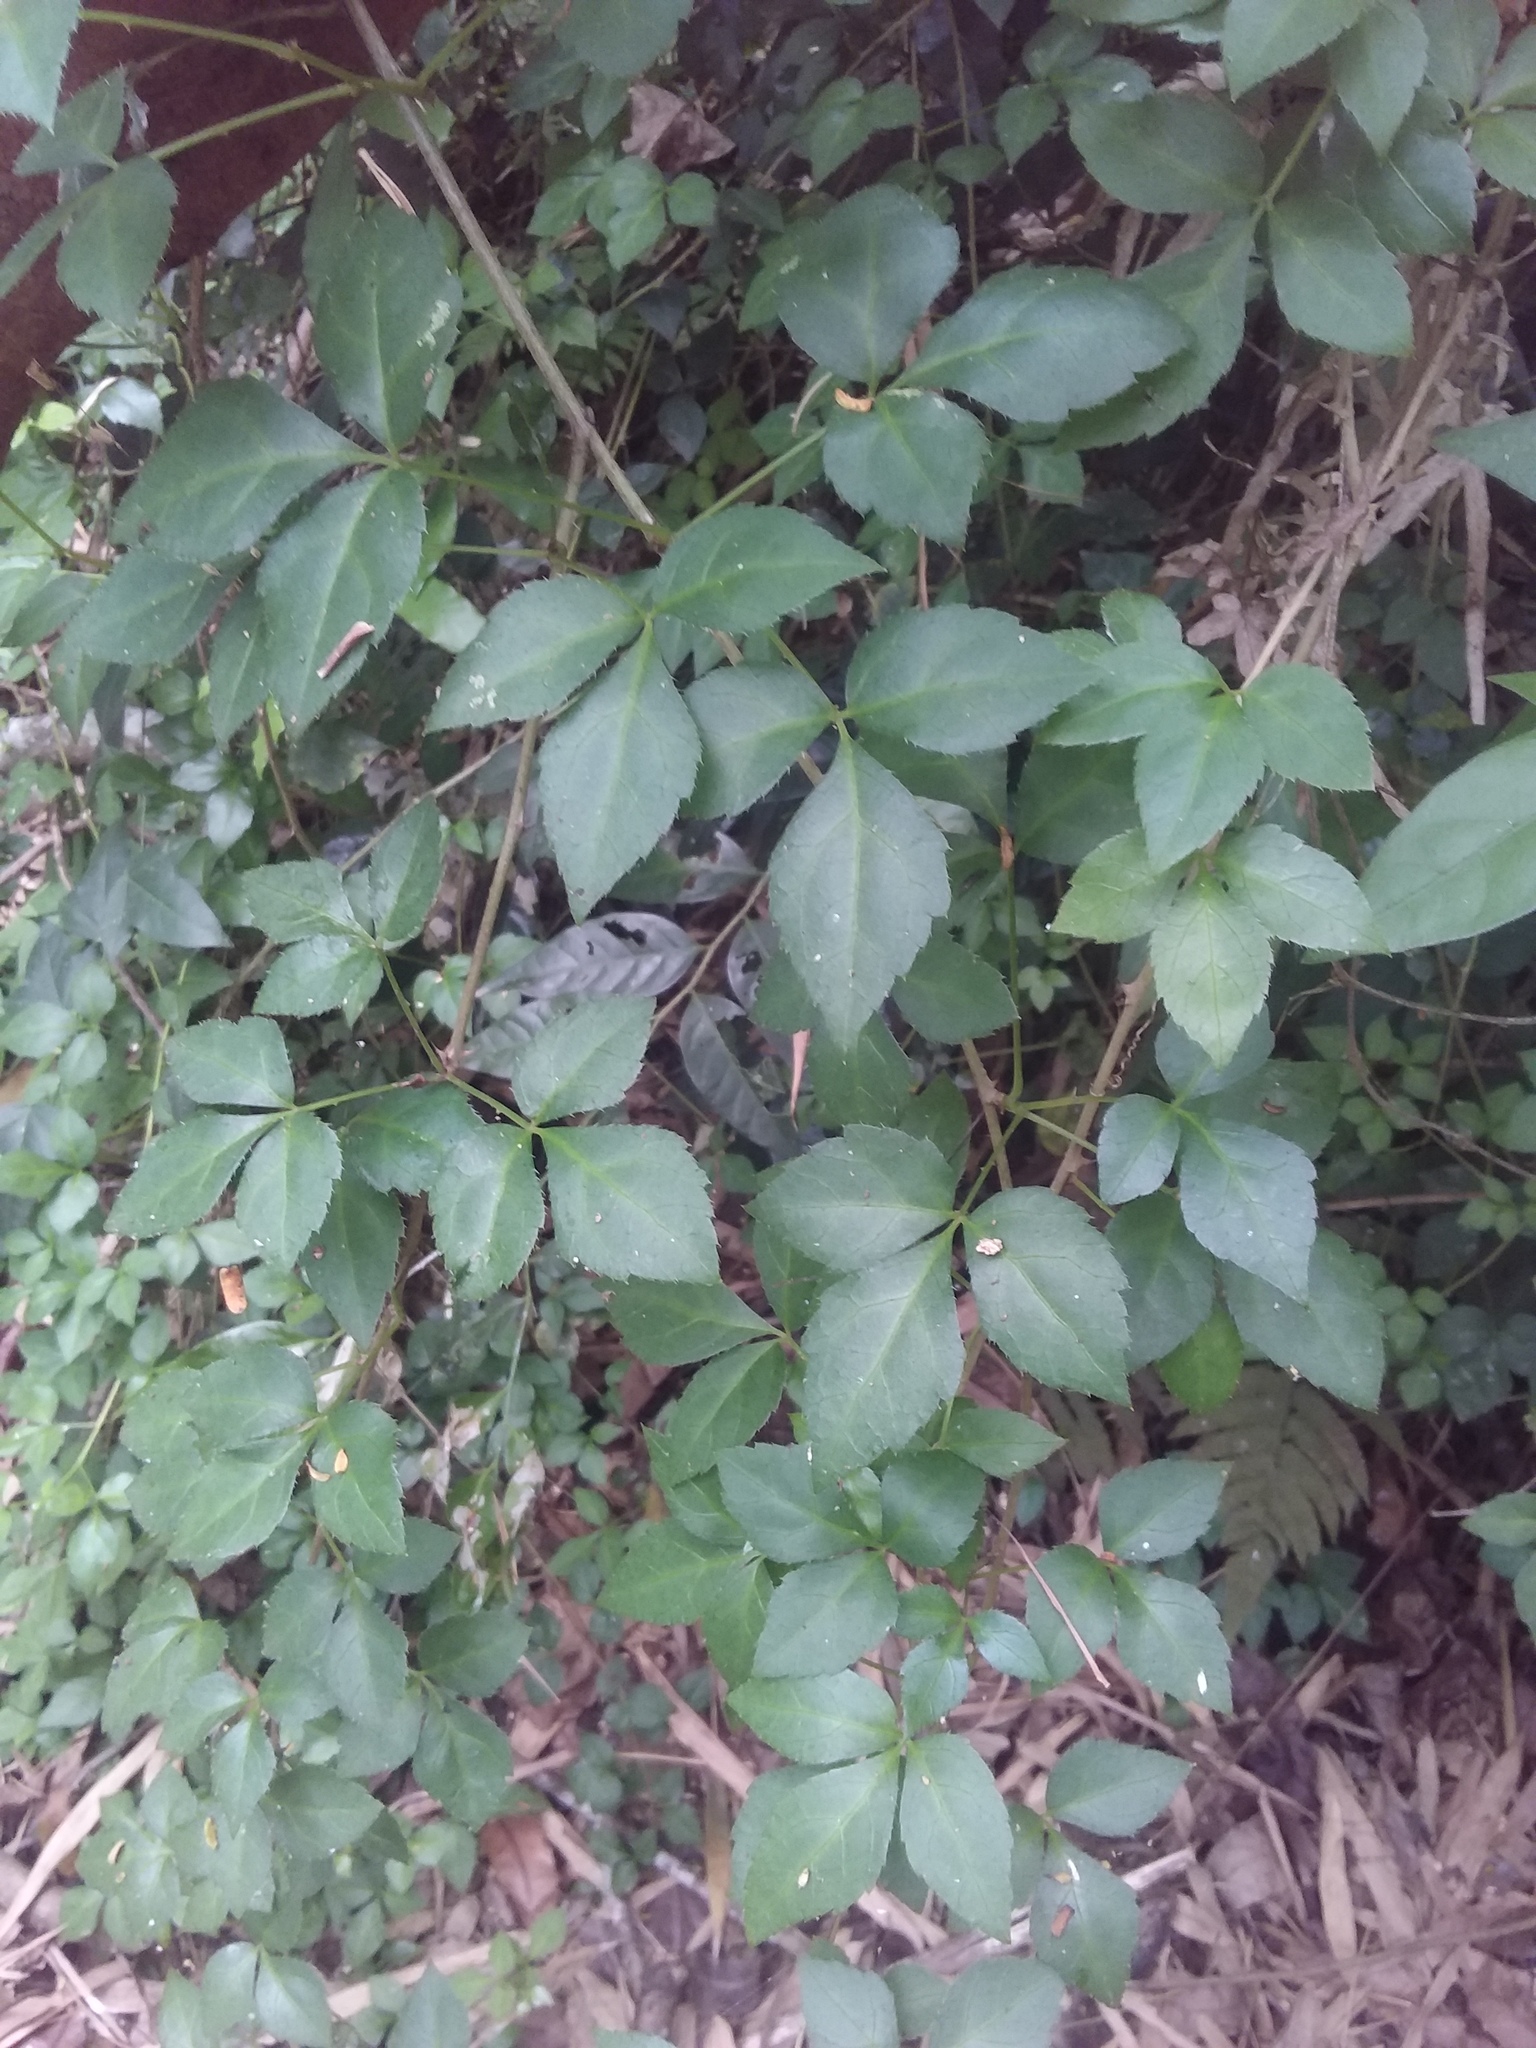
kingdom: Plantae
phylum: Tracheophyta
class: Magnoliopsida
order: Apiales
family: Araliaceae
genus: Eleutherococcus
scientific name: Eleutherococcus trifoliatus
